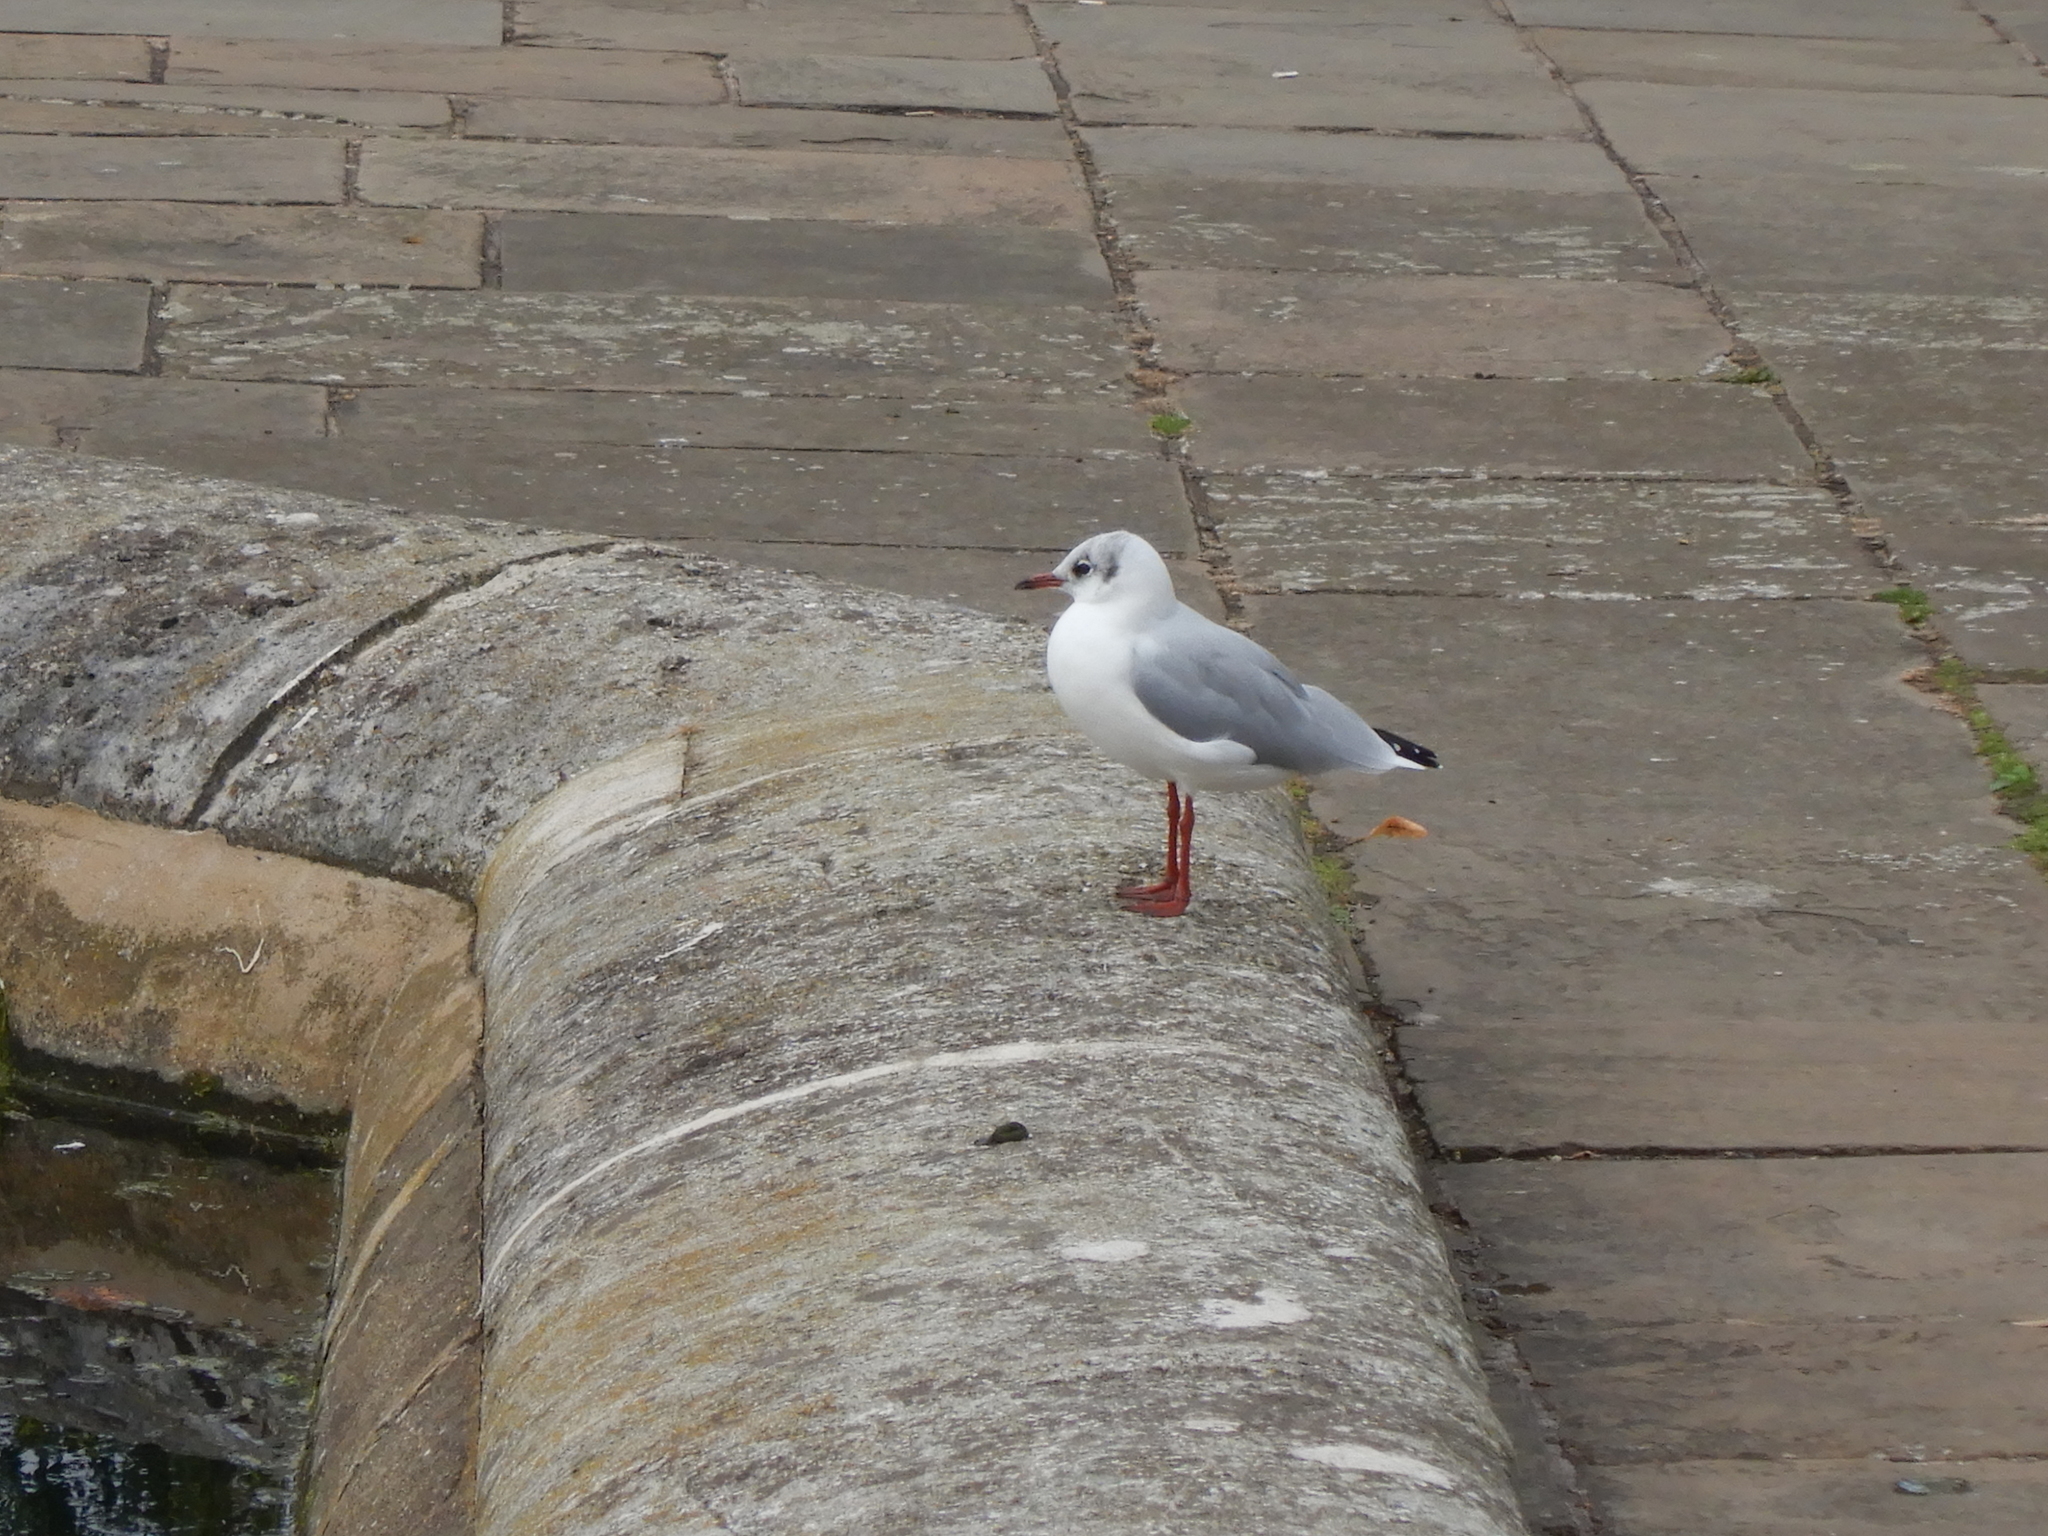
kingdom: Animalia
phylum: Chordata
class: Aves
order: Charadriiformes
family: Laridae
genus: Chroicocephalus
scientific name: Chroicocephalus ridibundus
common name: Black-headed gull
